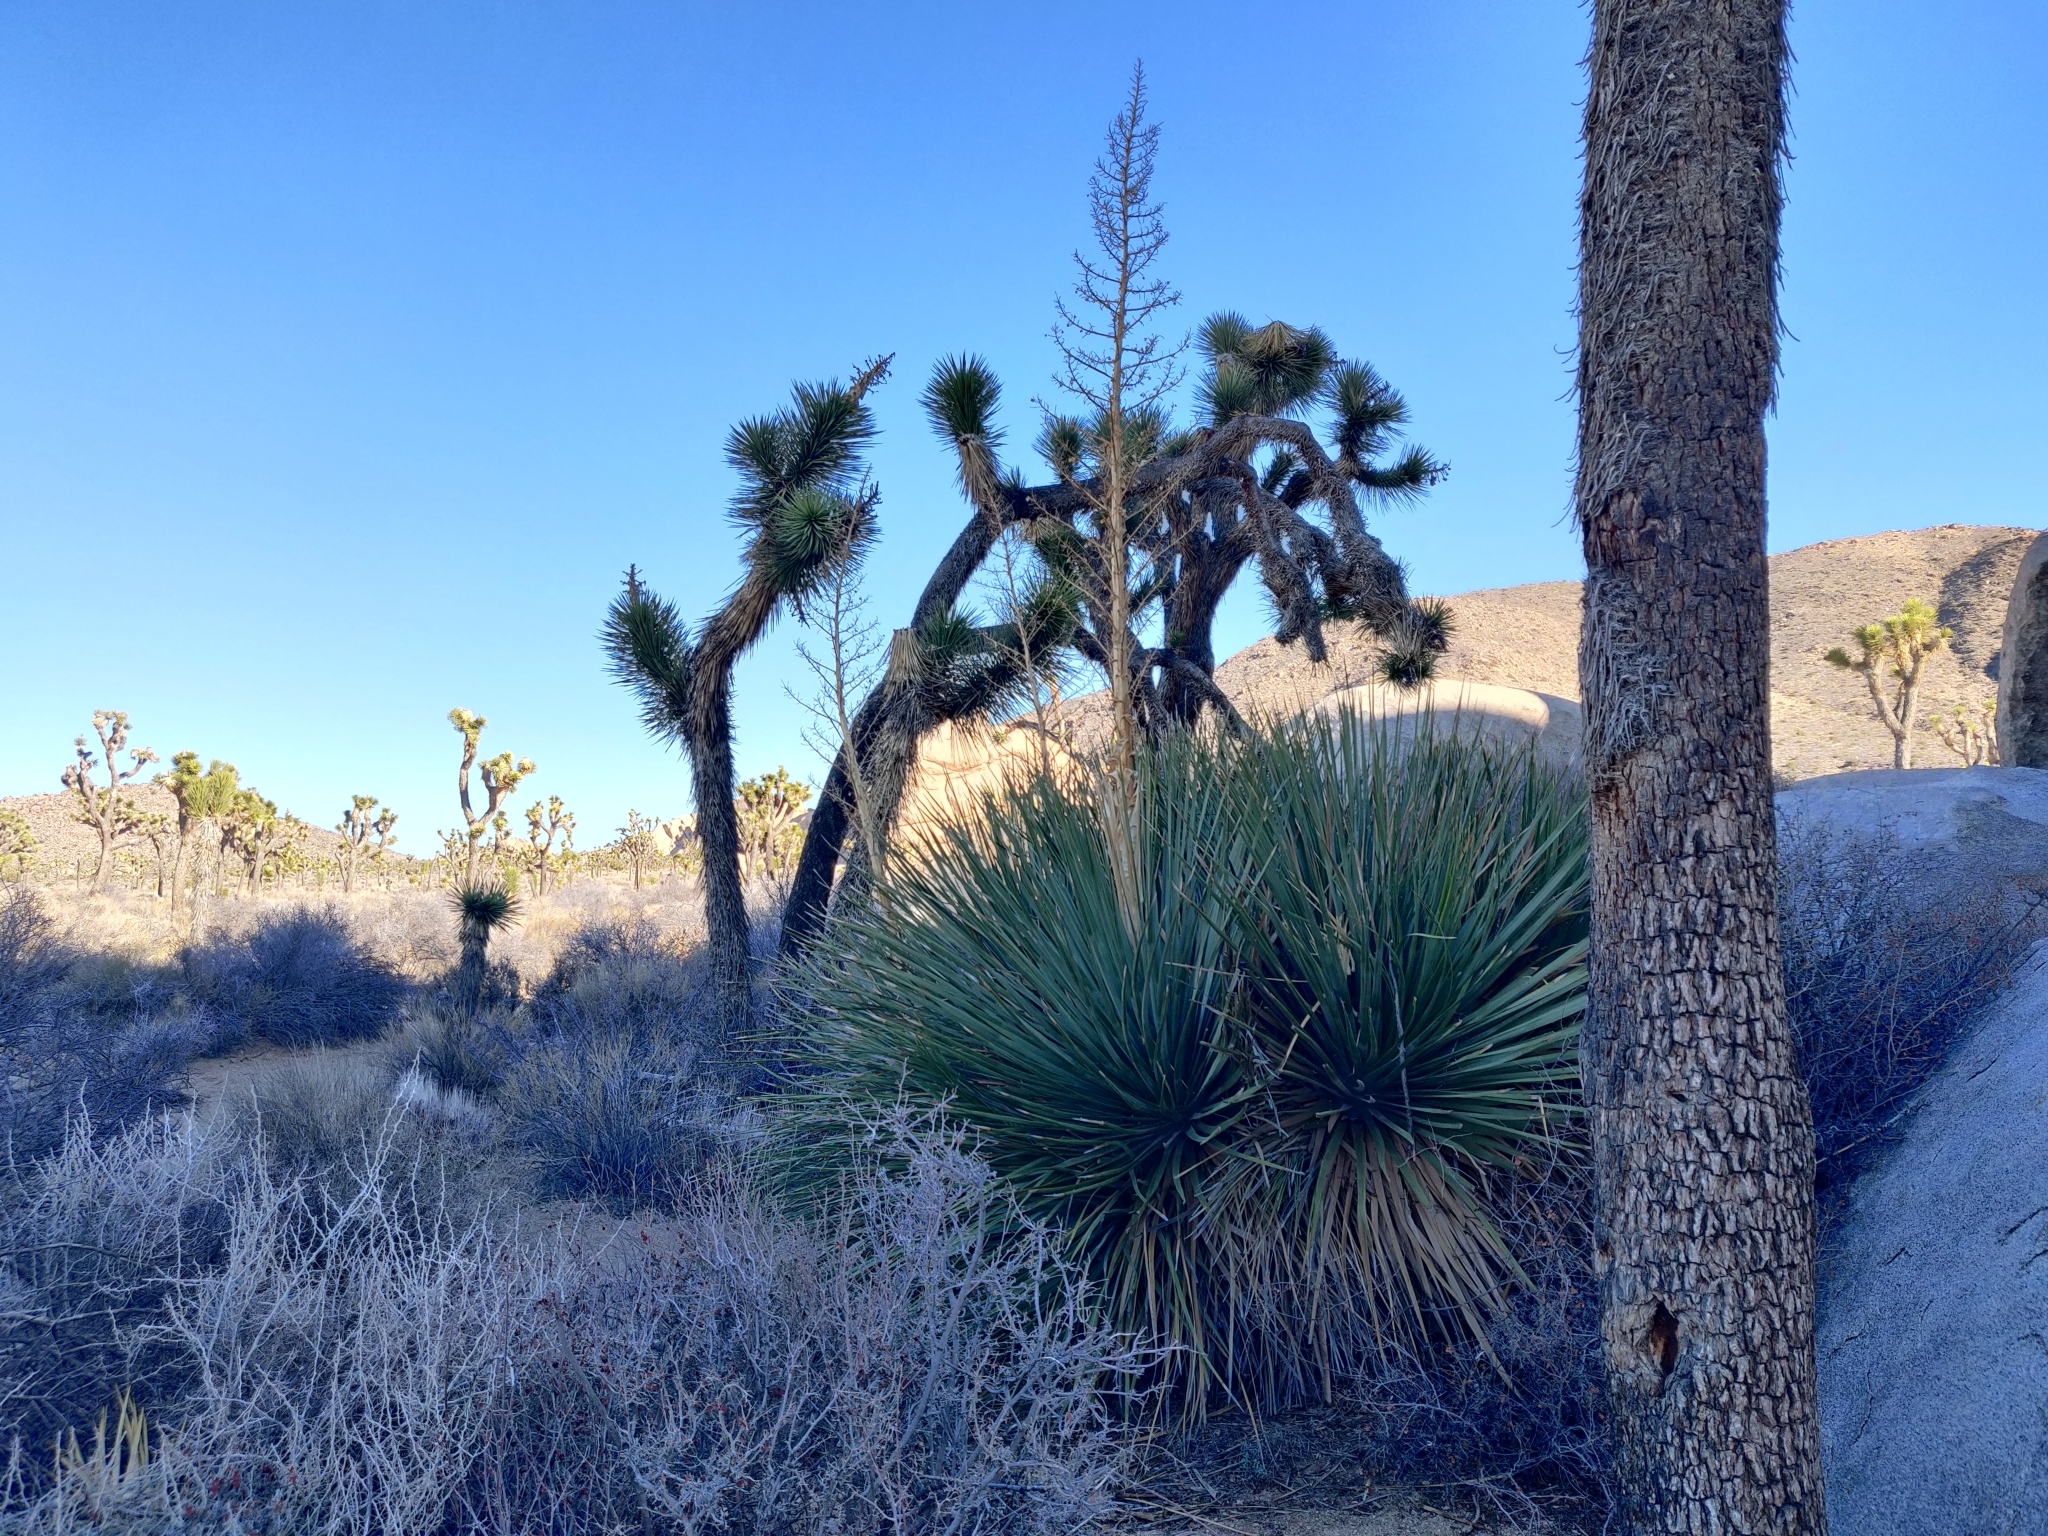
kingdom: Plantae
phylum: Tracheophyta
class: Liliopsida
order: Asparagales
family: Asparagaceae
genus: Nolina
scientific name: Nolina parryi
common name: Parry nolina
